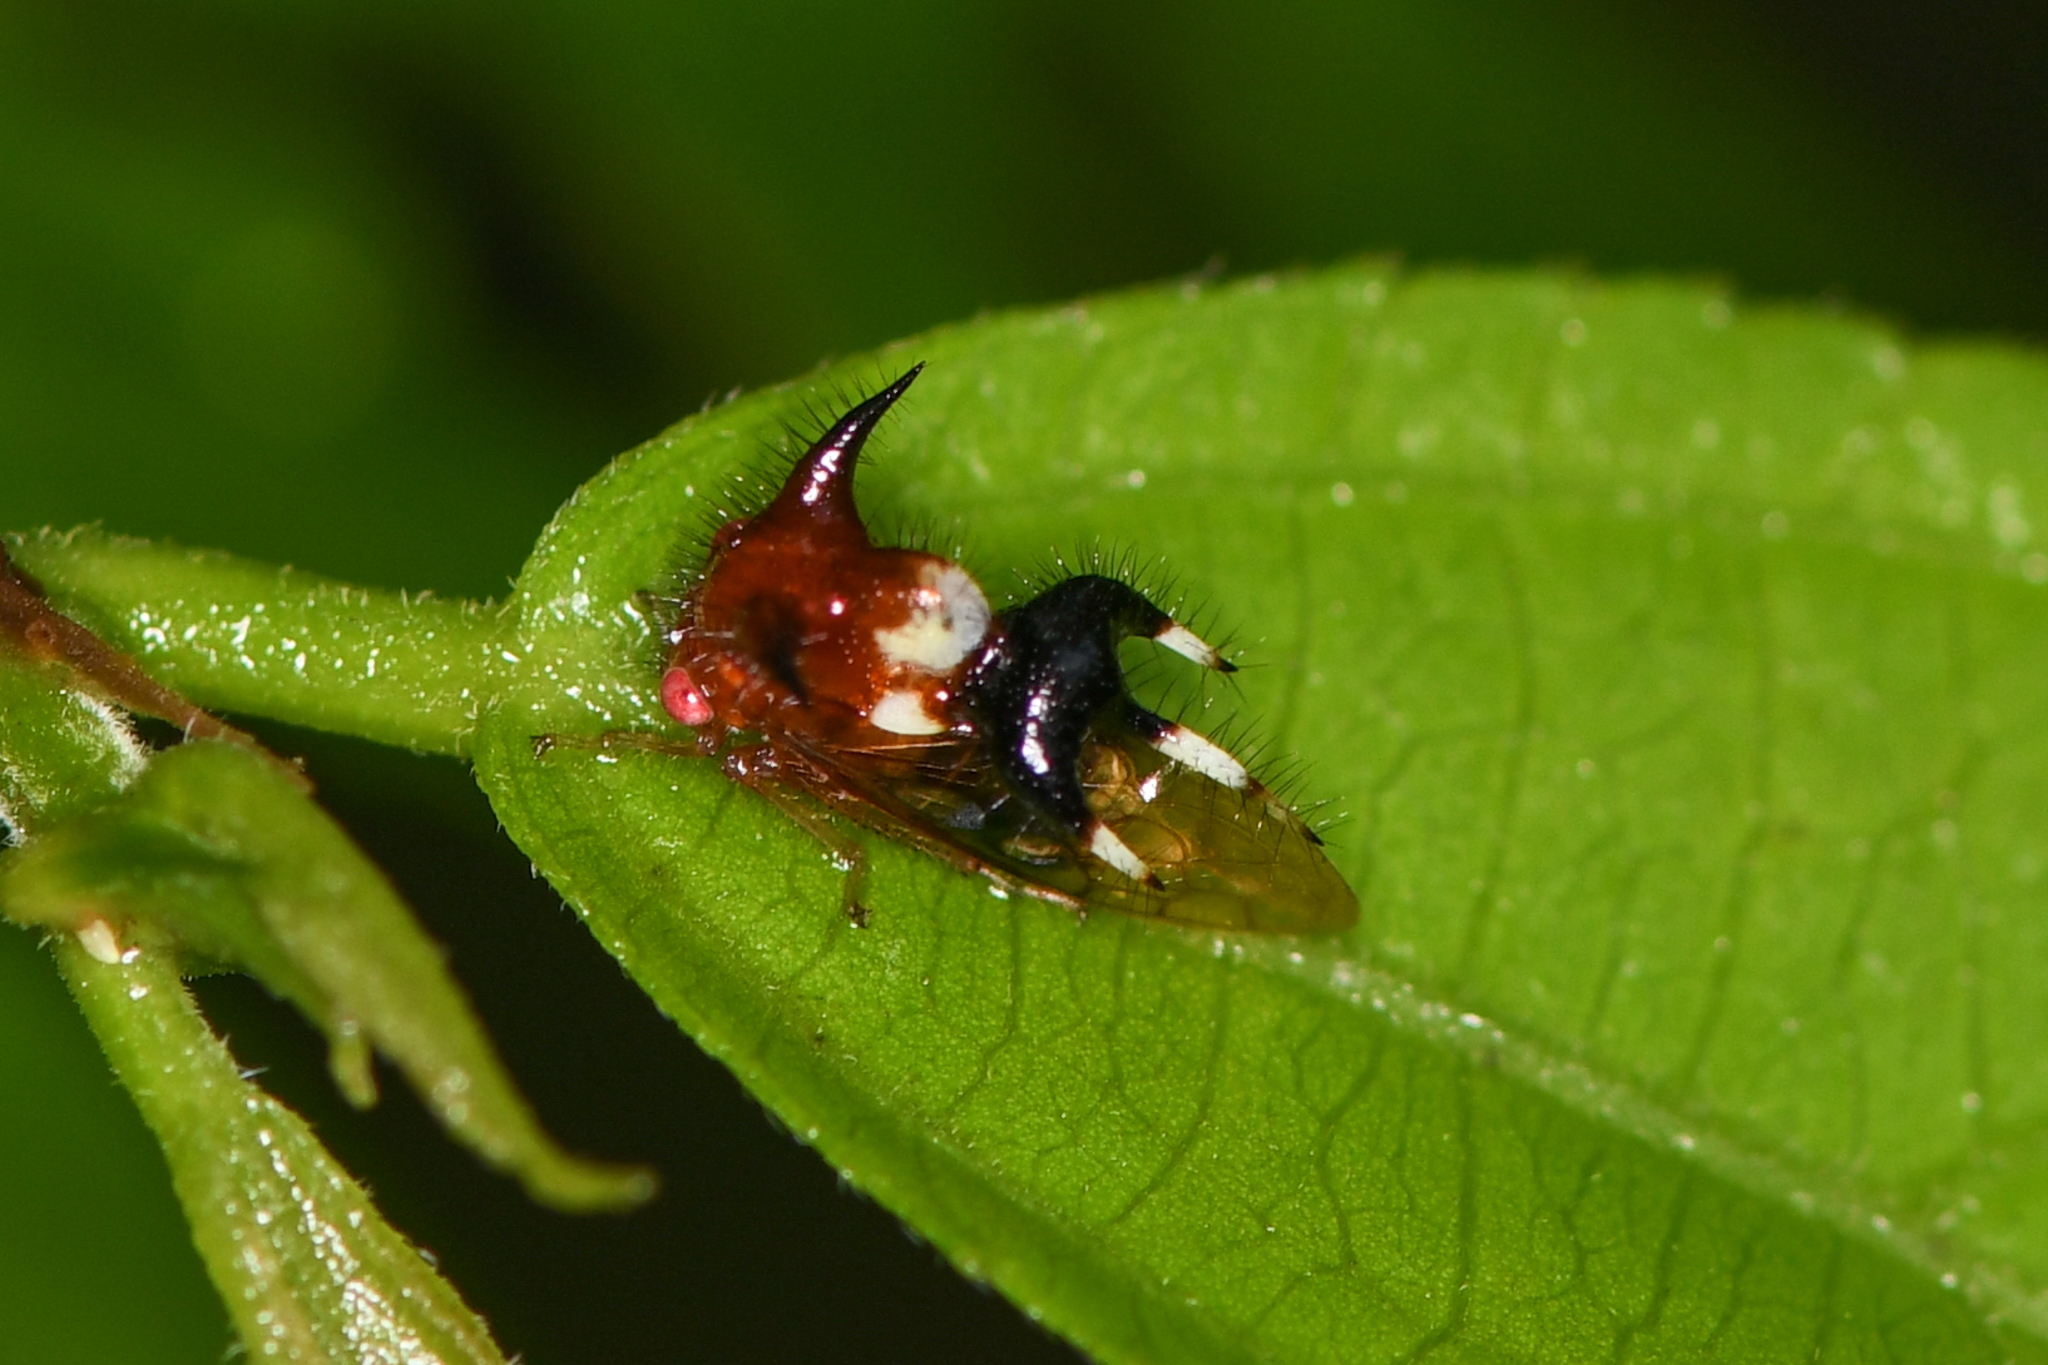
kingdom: Animalia
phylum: Arthropoda
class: Insecta
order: Hemiptera
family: Membracidae
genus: Poppea
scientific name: Poppea capricornis
